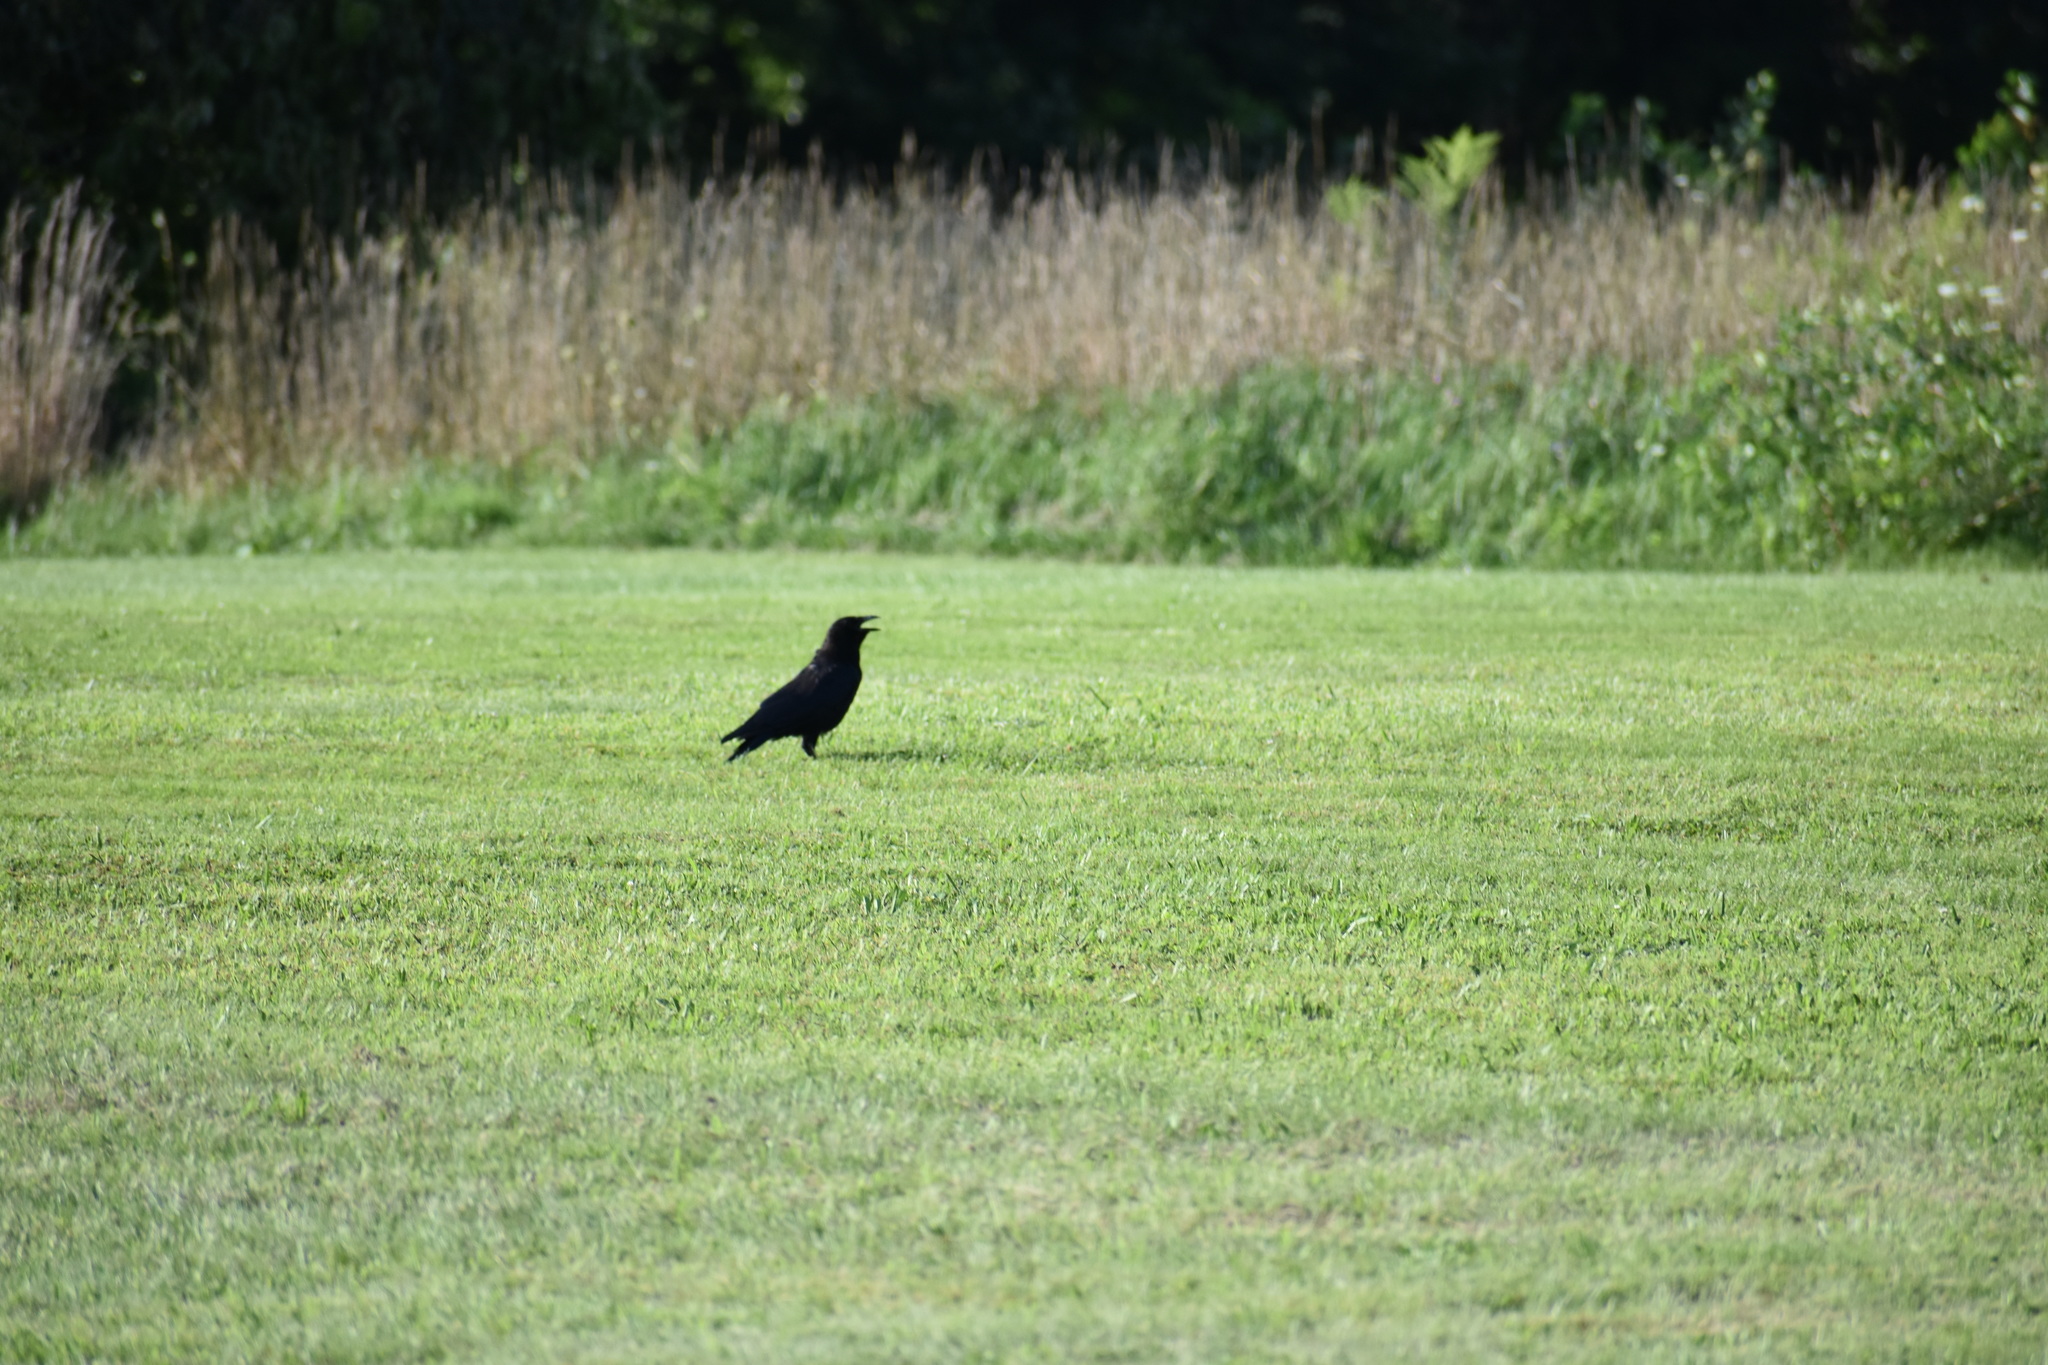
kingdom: Animalia
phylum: Chordata
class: Aves
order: Passeriformes
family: Corvidae
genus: Corvus
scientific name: Corvus brachyrhynchos
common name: American crow
